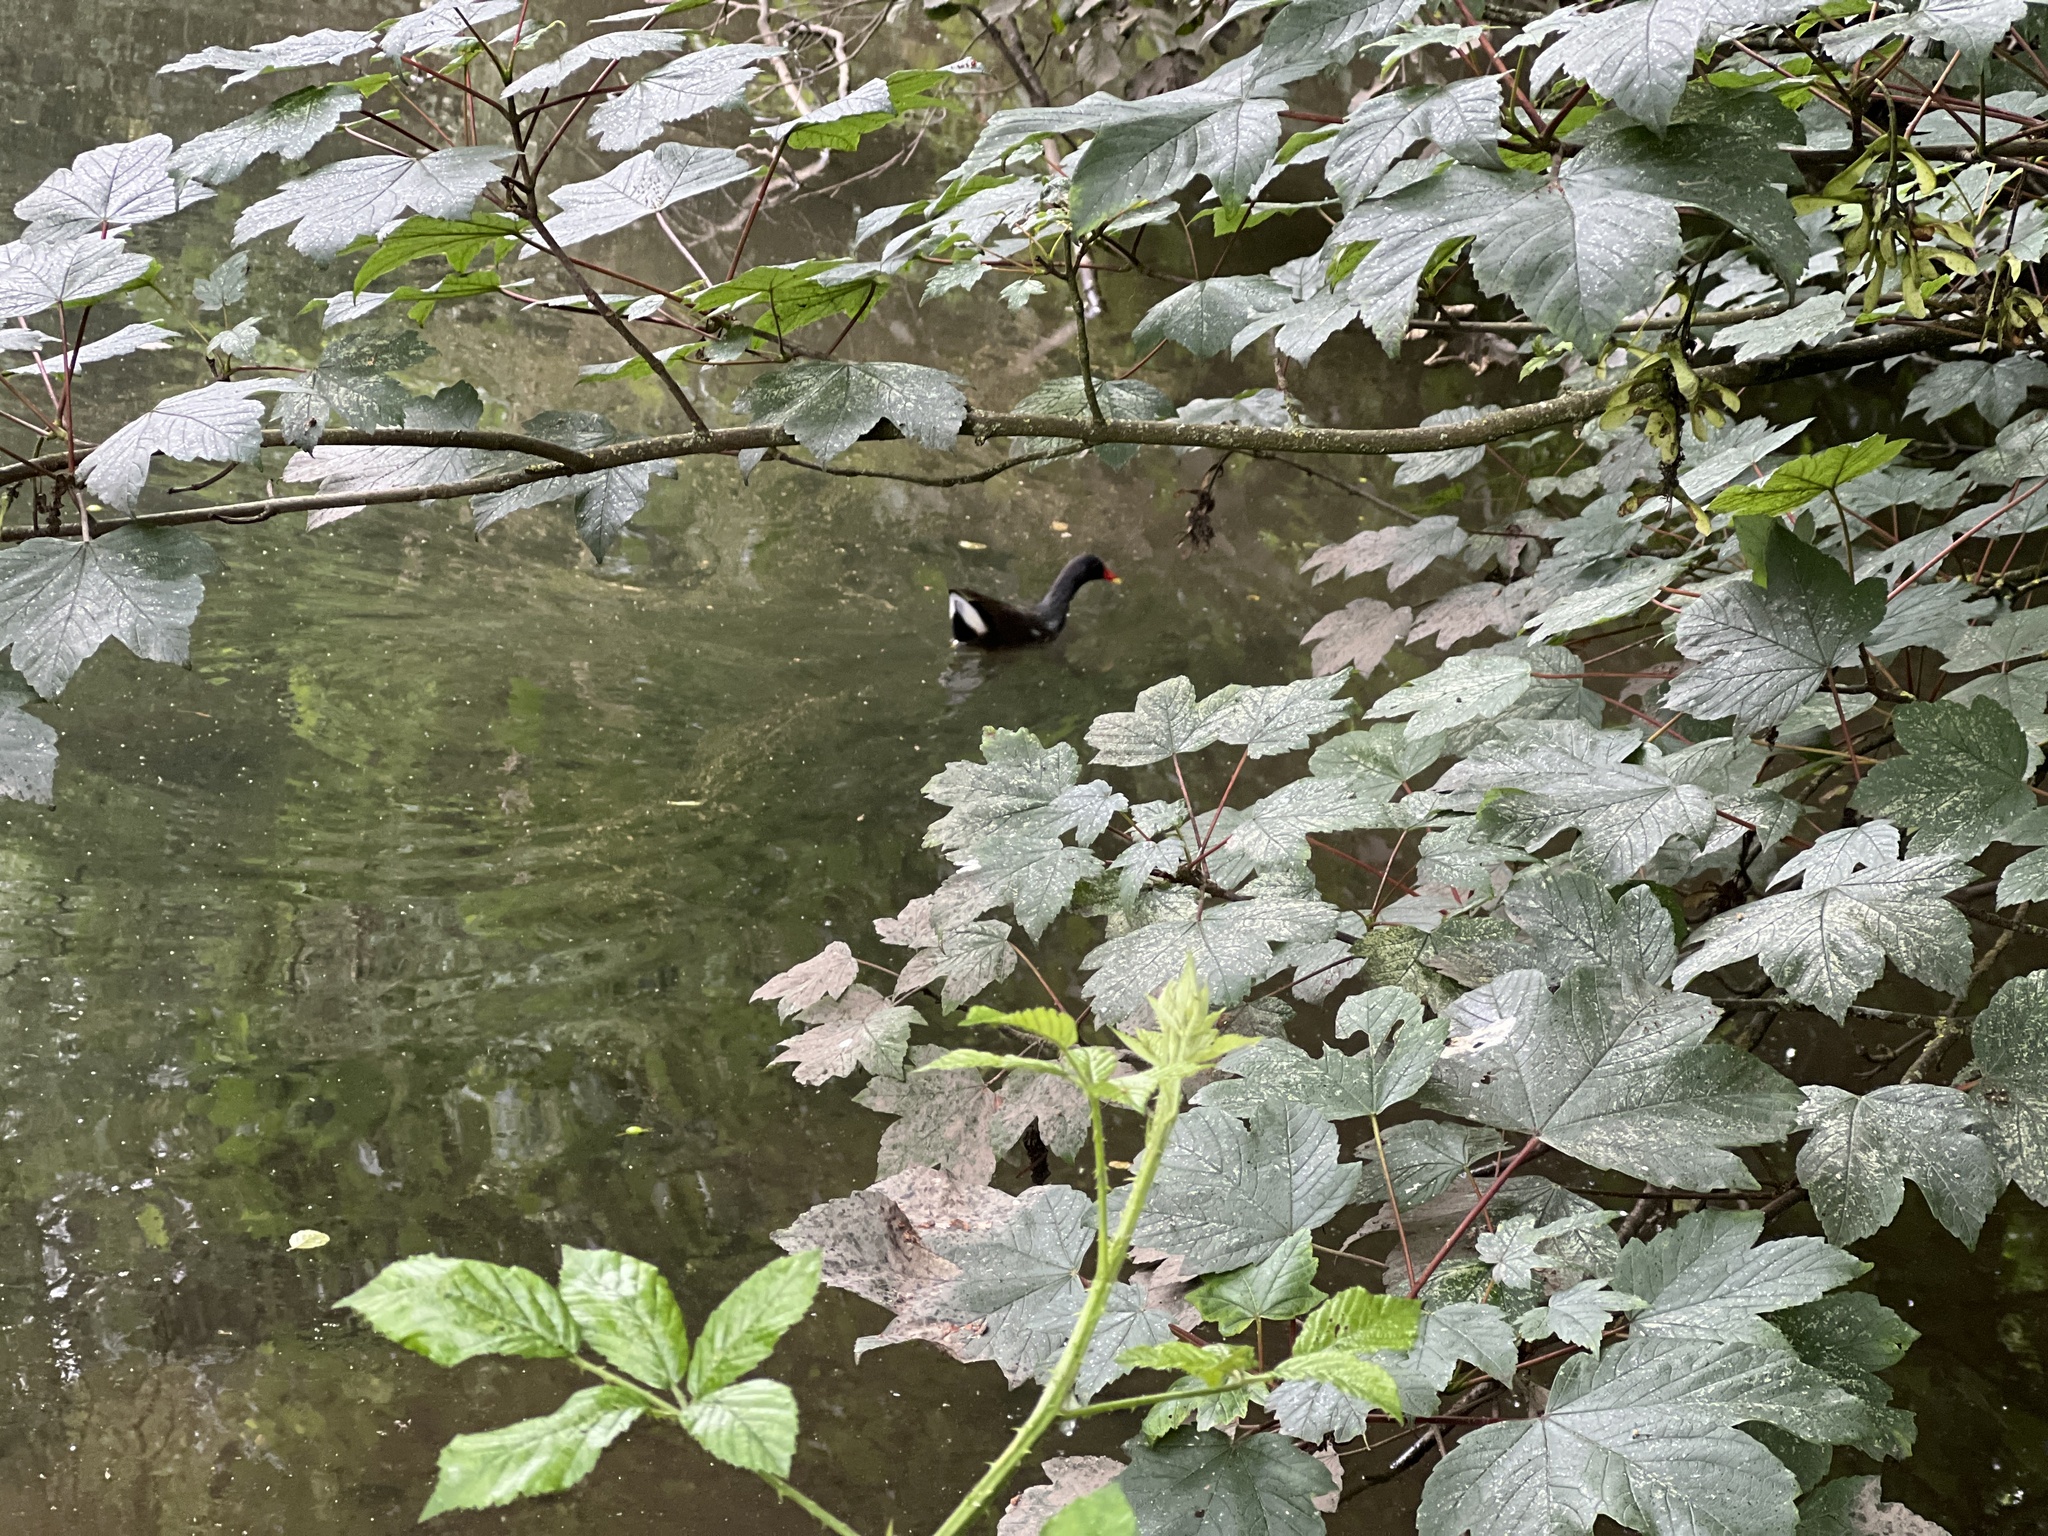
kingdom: Animalia
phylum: Chordata
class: Aves
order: Gruiformes
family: Rallidae
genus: Gallinula
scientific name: Gallinula chloropus
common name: Common moorhen
